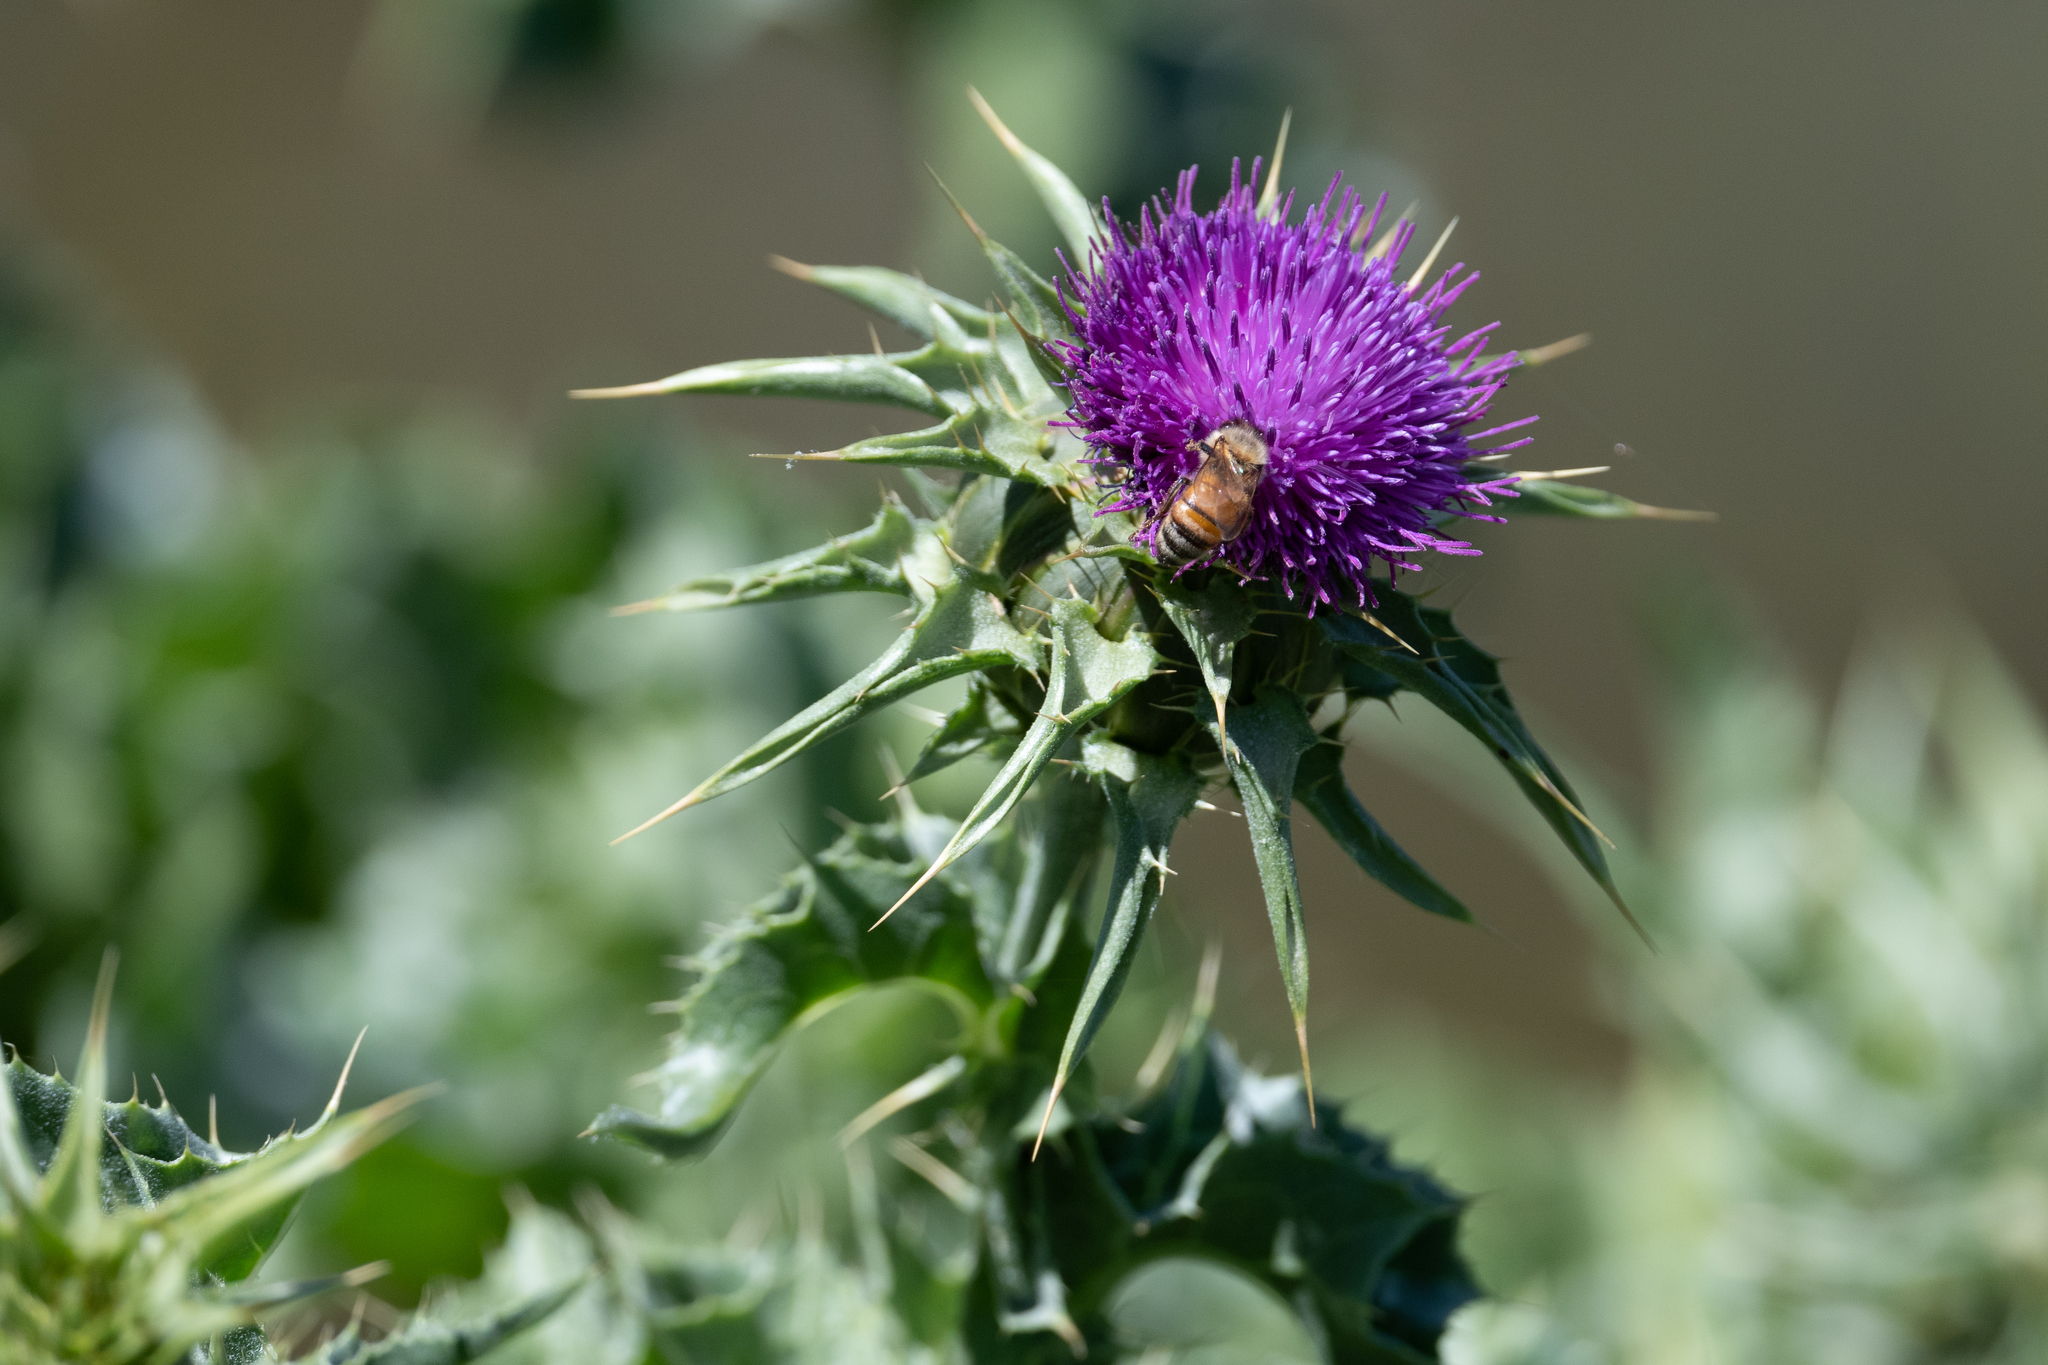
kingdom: Plantae
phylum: Tracheophyta
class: Magnoliopsida
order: Asterales
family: Asteraceae
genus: Silybum
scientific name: Silybum marianum
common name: Milk thistle
